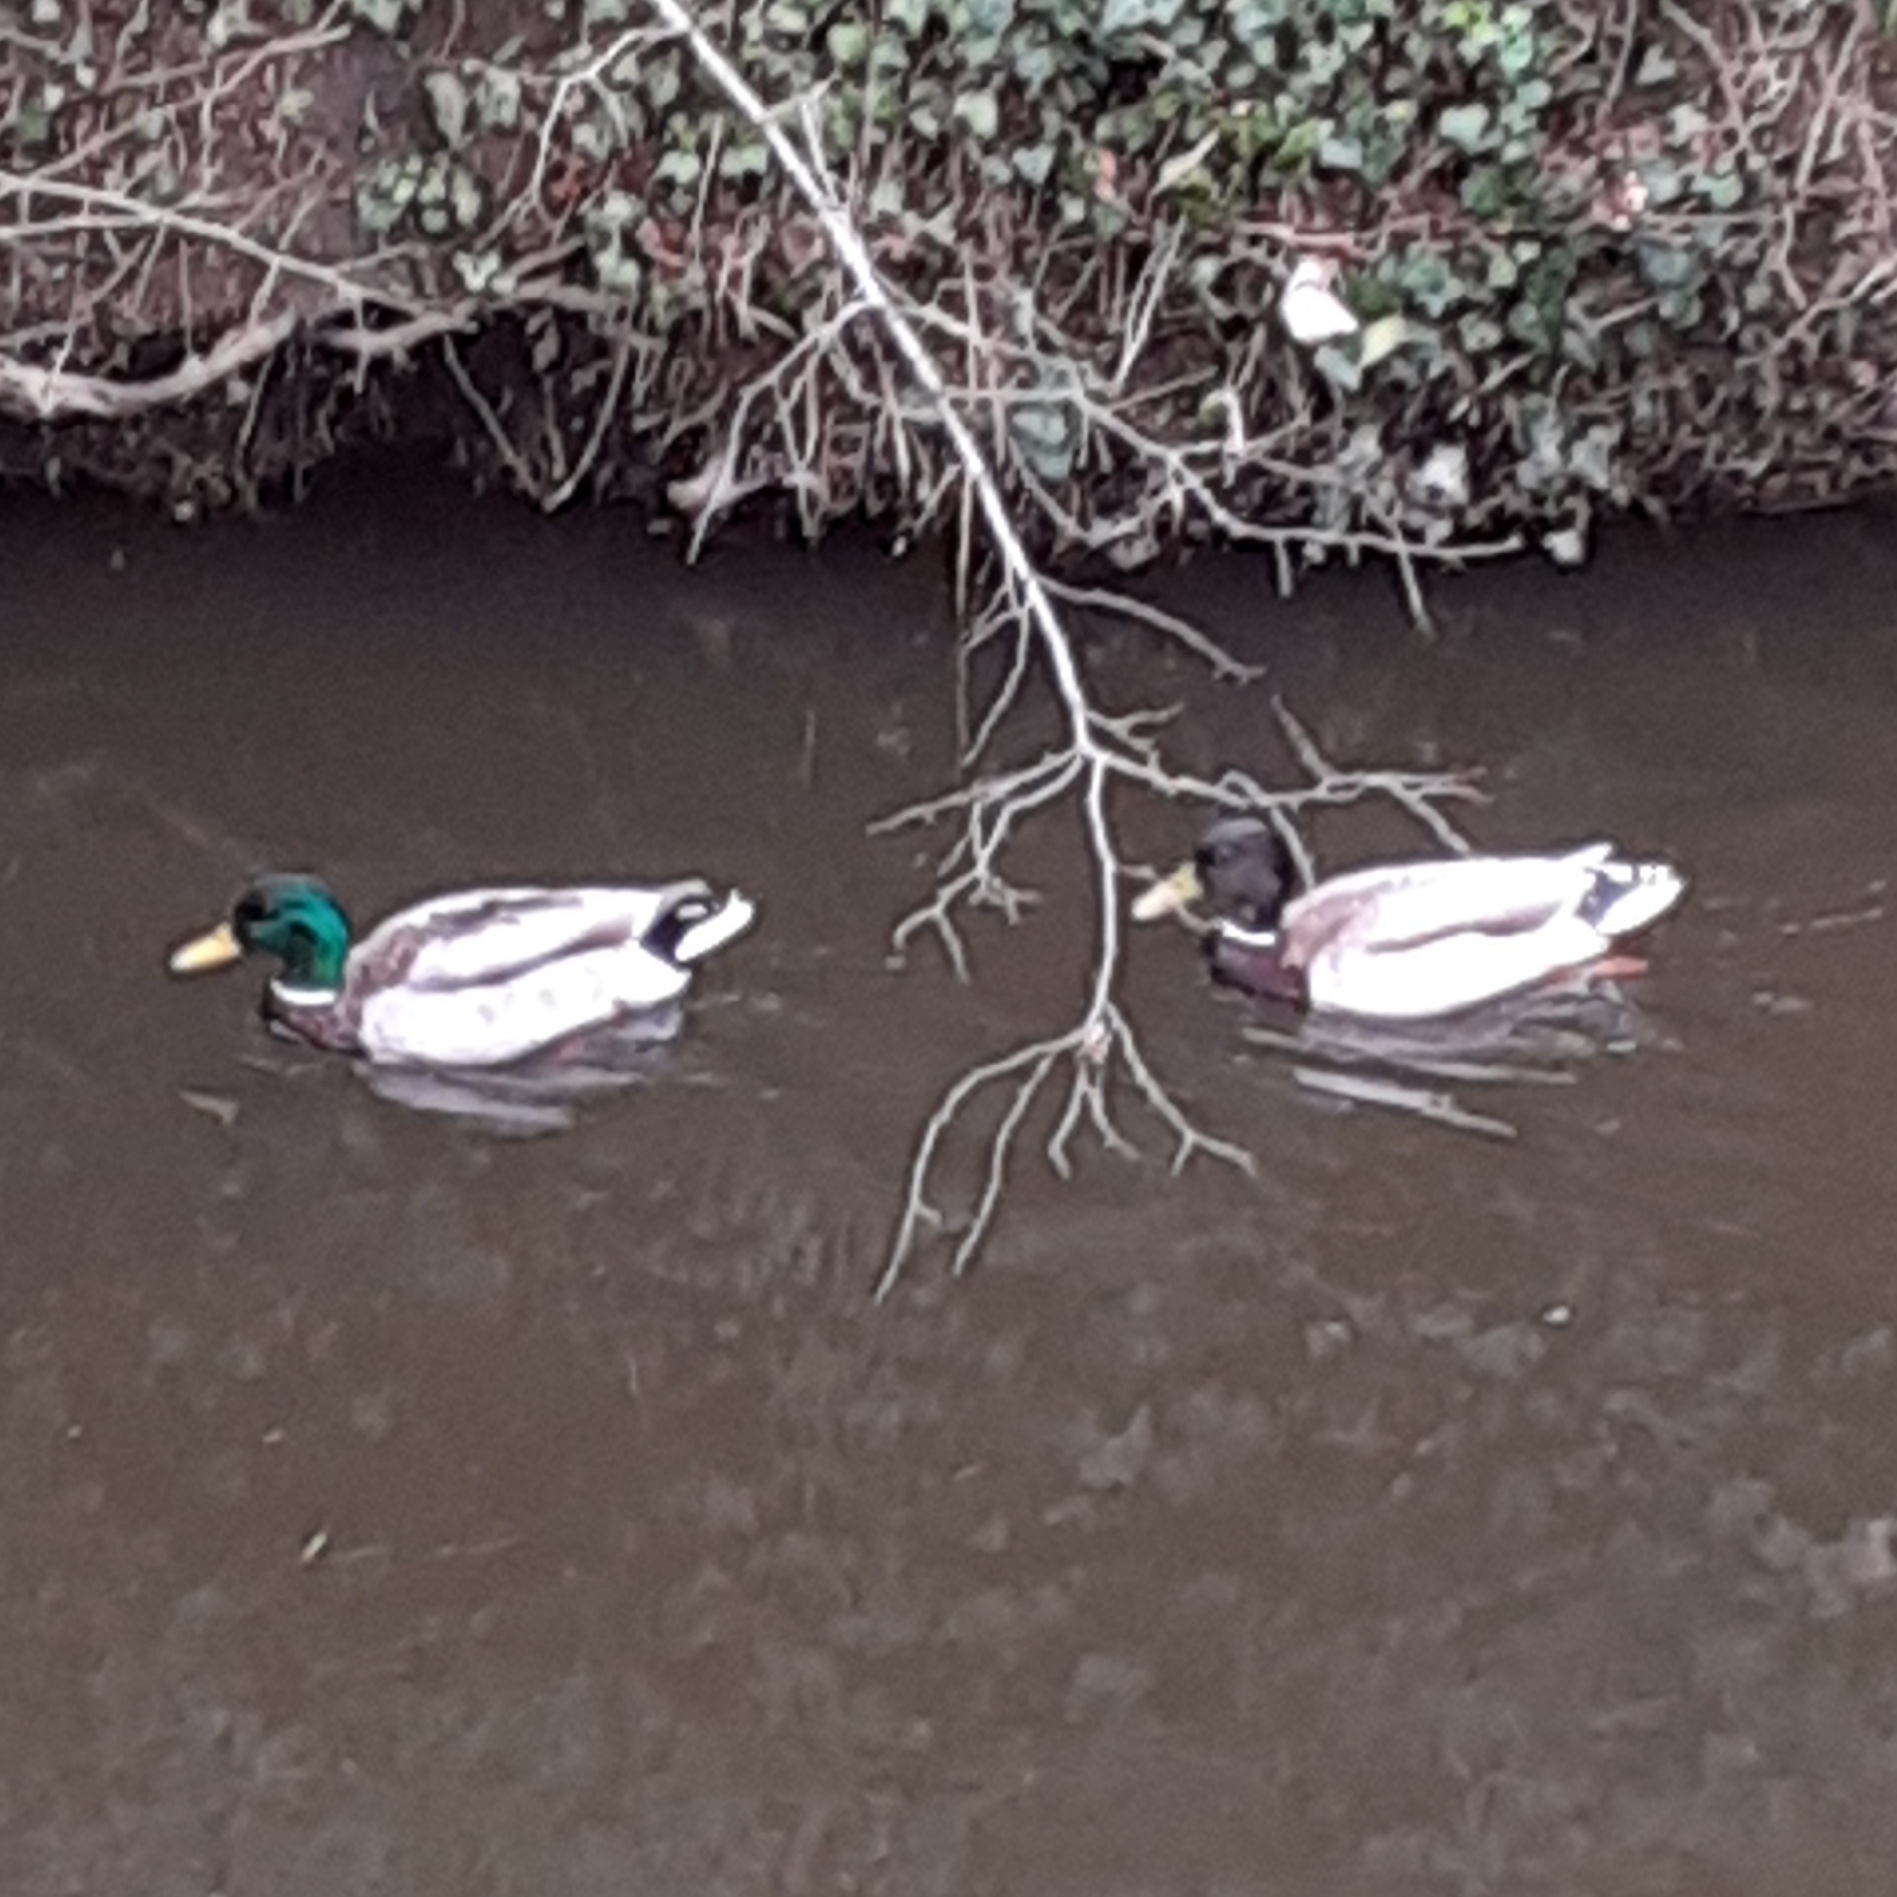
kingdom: Animalia
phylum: Chordata
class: Aves
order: Anseriformes
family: Anatidae
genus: Anas
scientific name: Anas platyrhynchos
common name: Mallard
